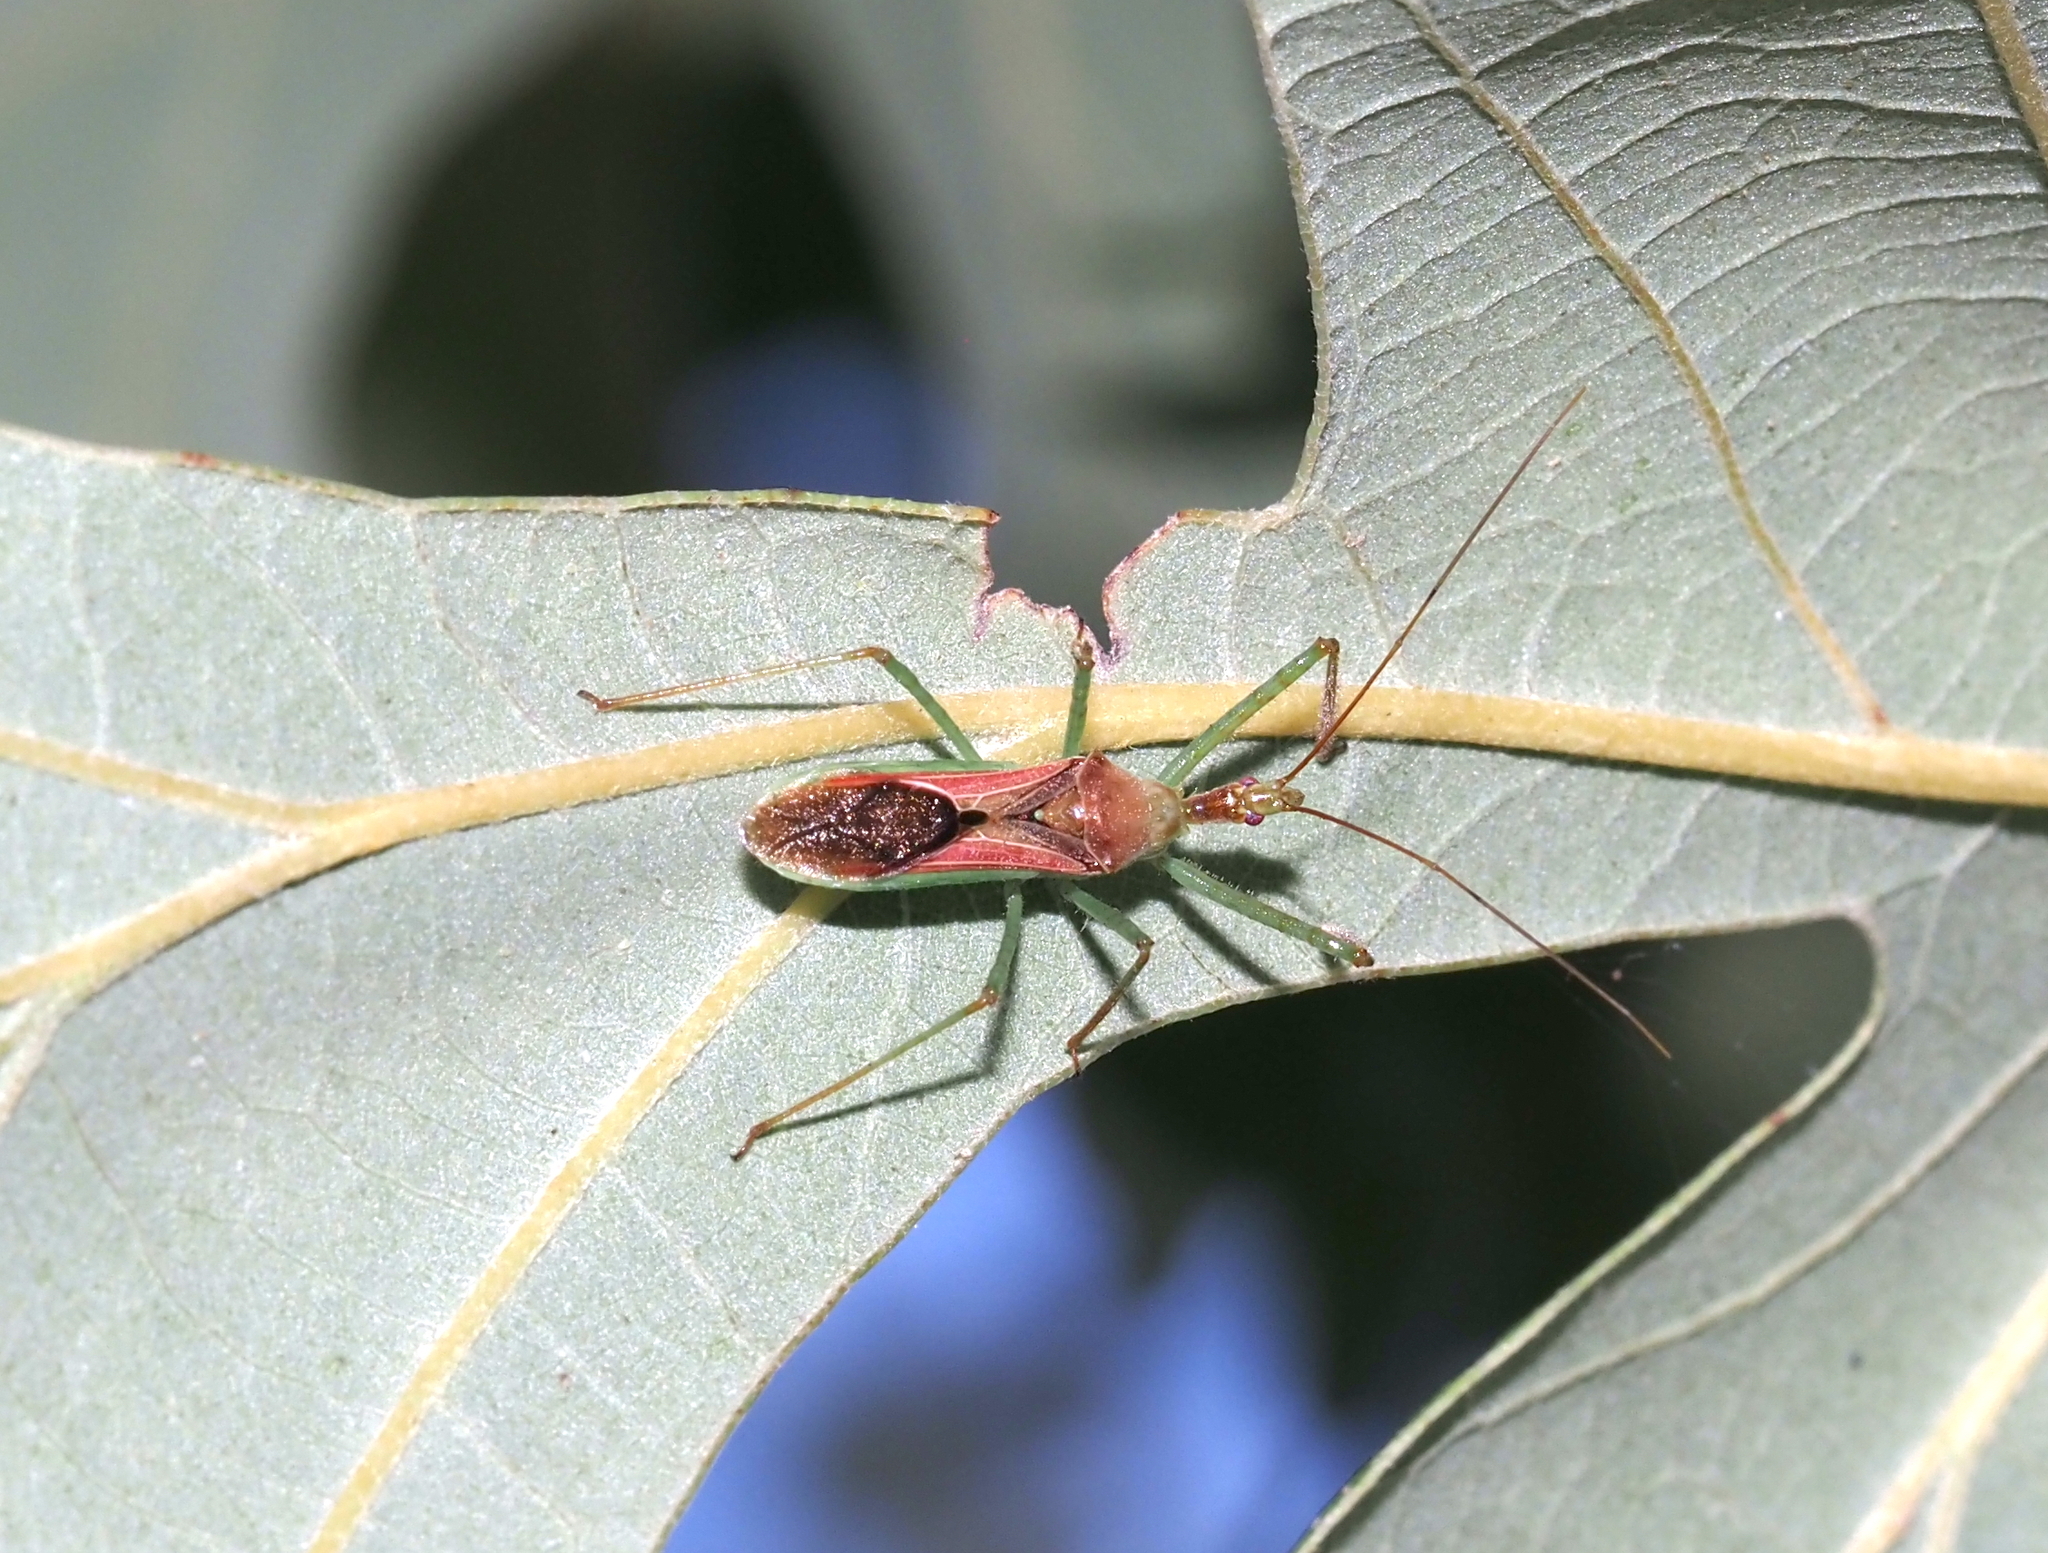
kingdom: Animalia
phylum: Arthropoda
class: Insecta
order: Hemiptera
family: Reduviidae
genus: Zelus
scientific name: Zelus renardii
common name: Assassin bug
